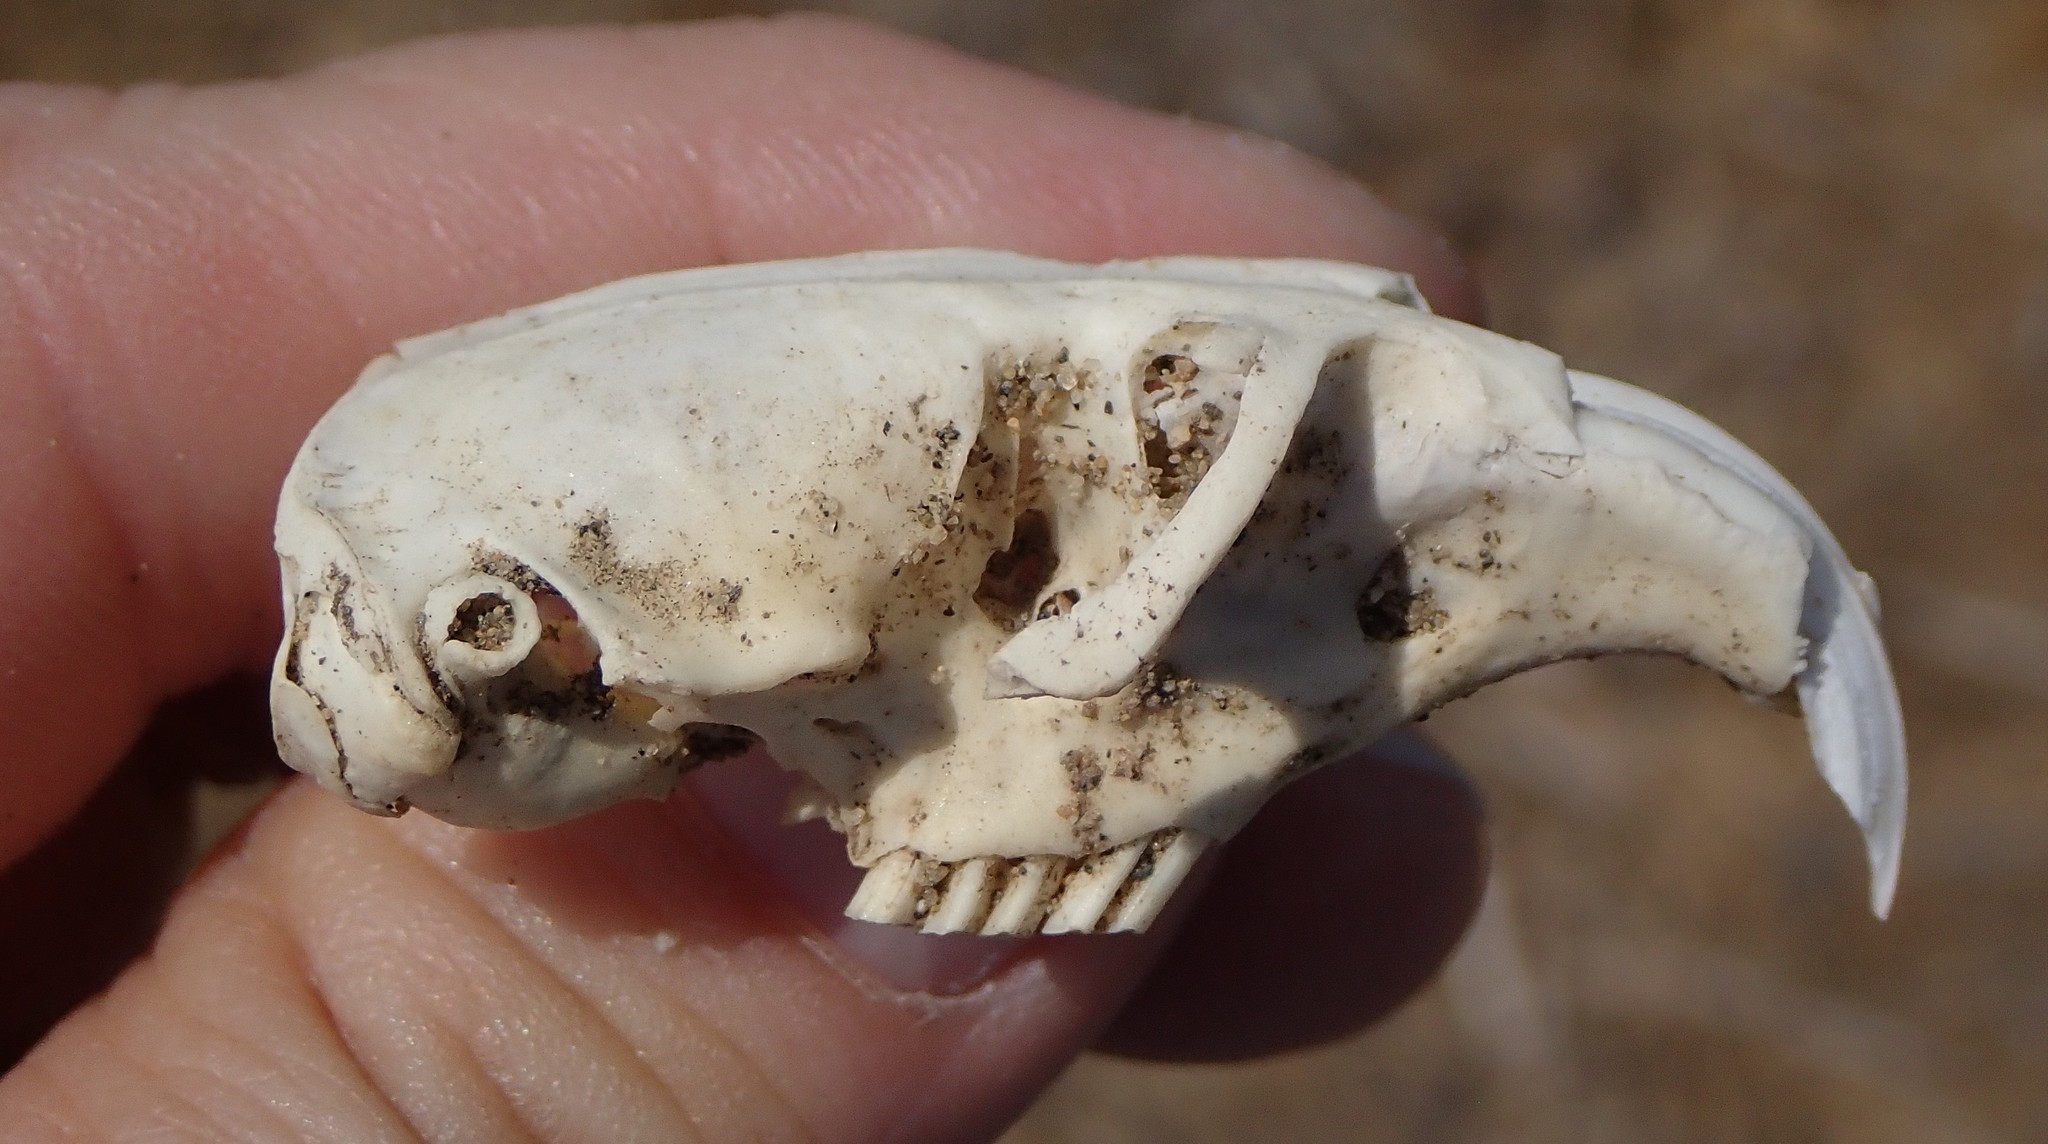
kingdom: Animalia
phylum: Chordata
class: Mammalia
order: Rodentia
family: Geomyidae
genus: Thomomys
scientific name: Thomomys bottae
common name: Botta's pocket gopher
